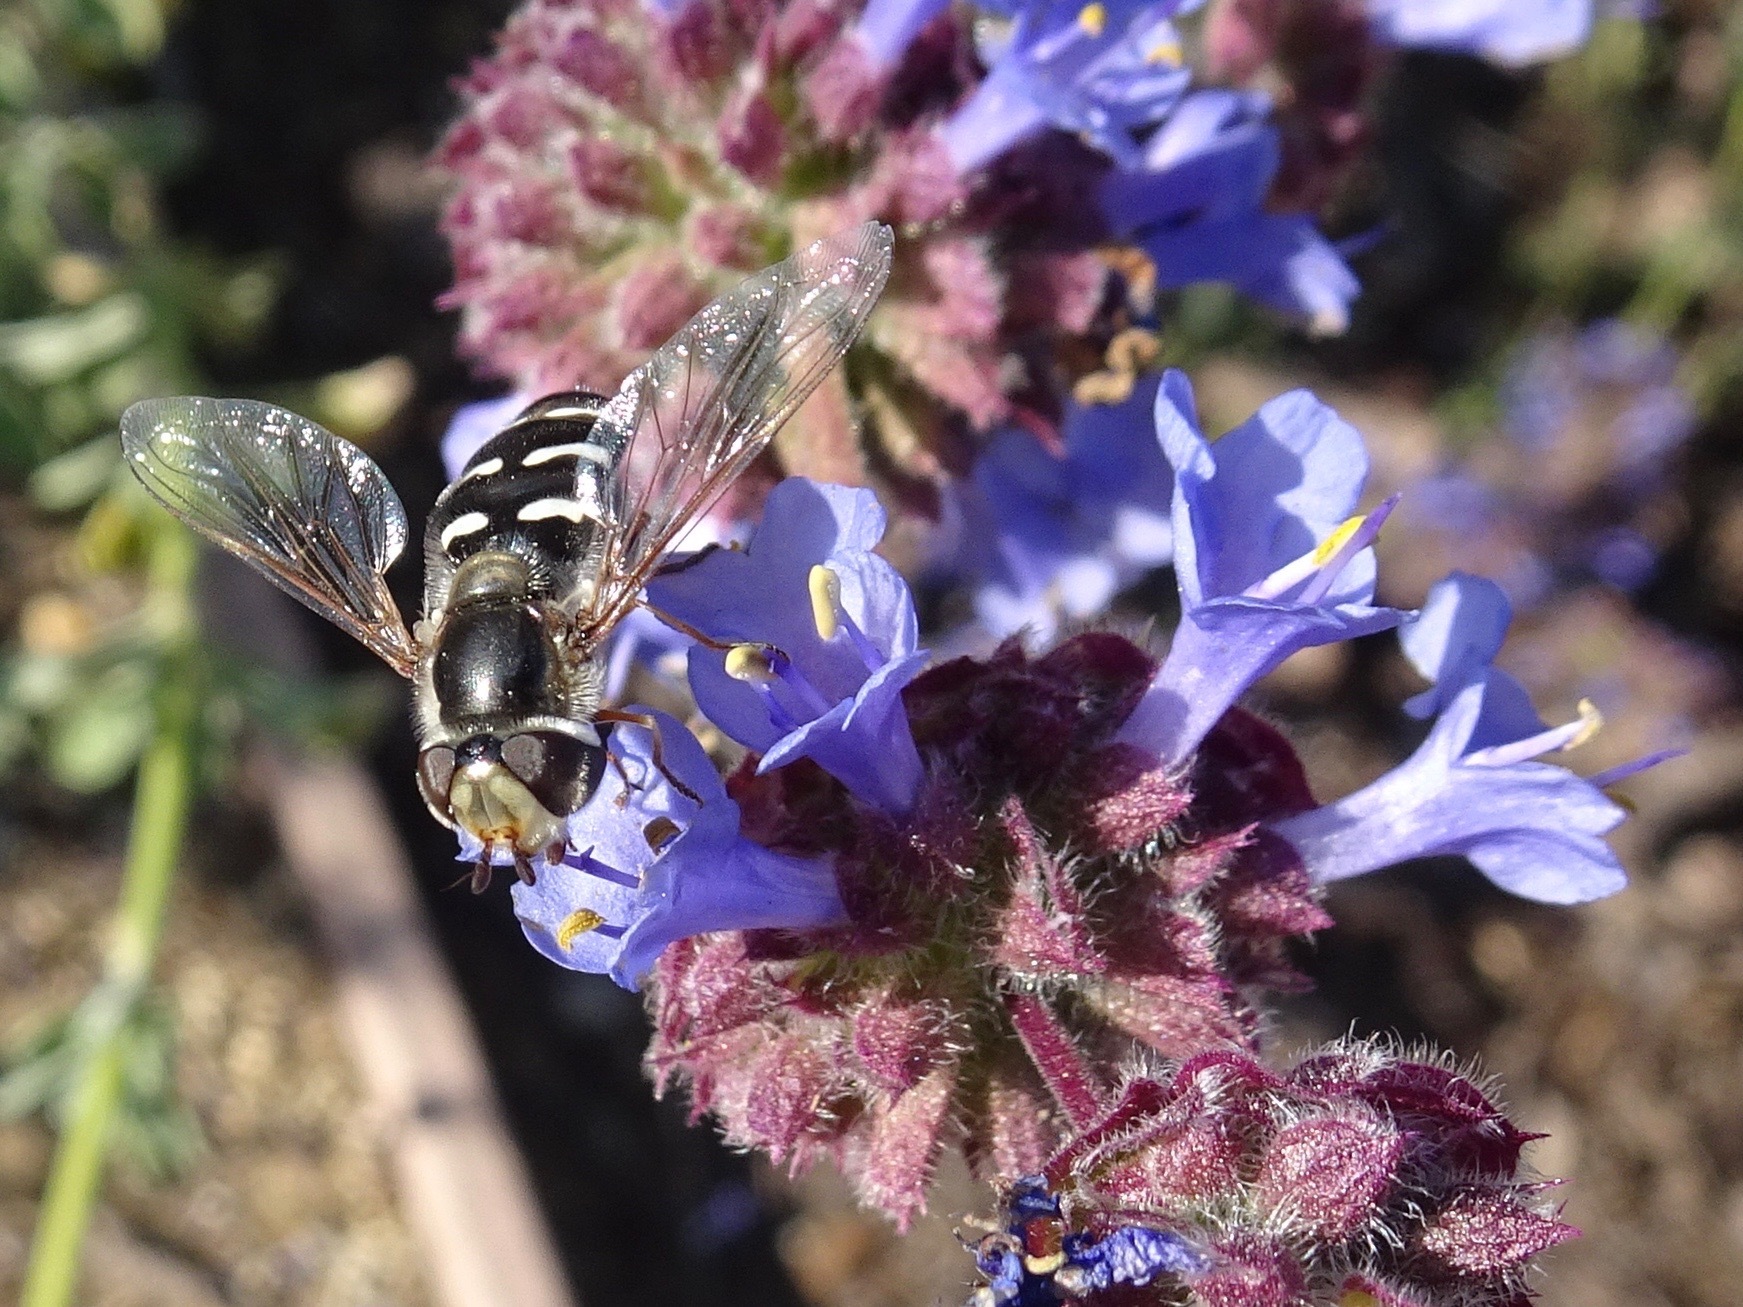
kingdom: Animalia
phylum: Arthropoda
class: Insecta
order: Diptera
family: Syrphidae
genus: Scaeva
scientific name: Scaeva affinis
